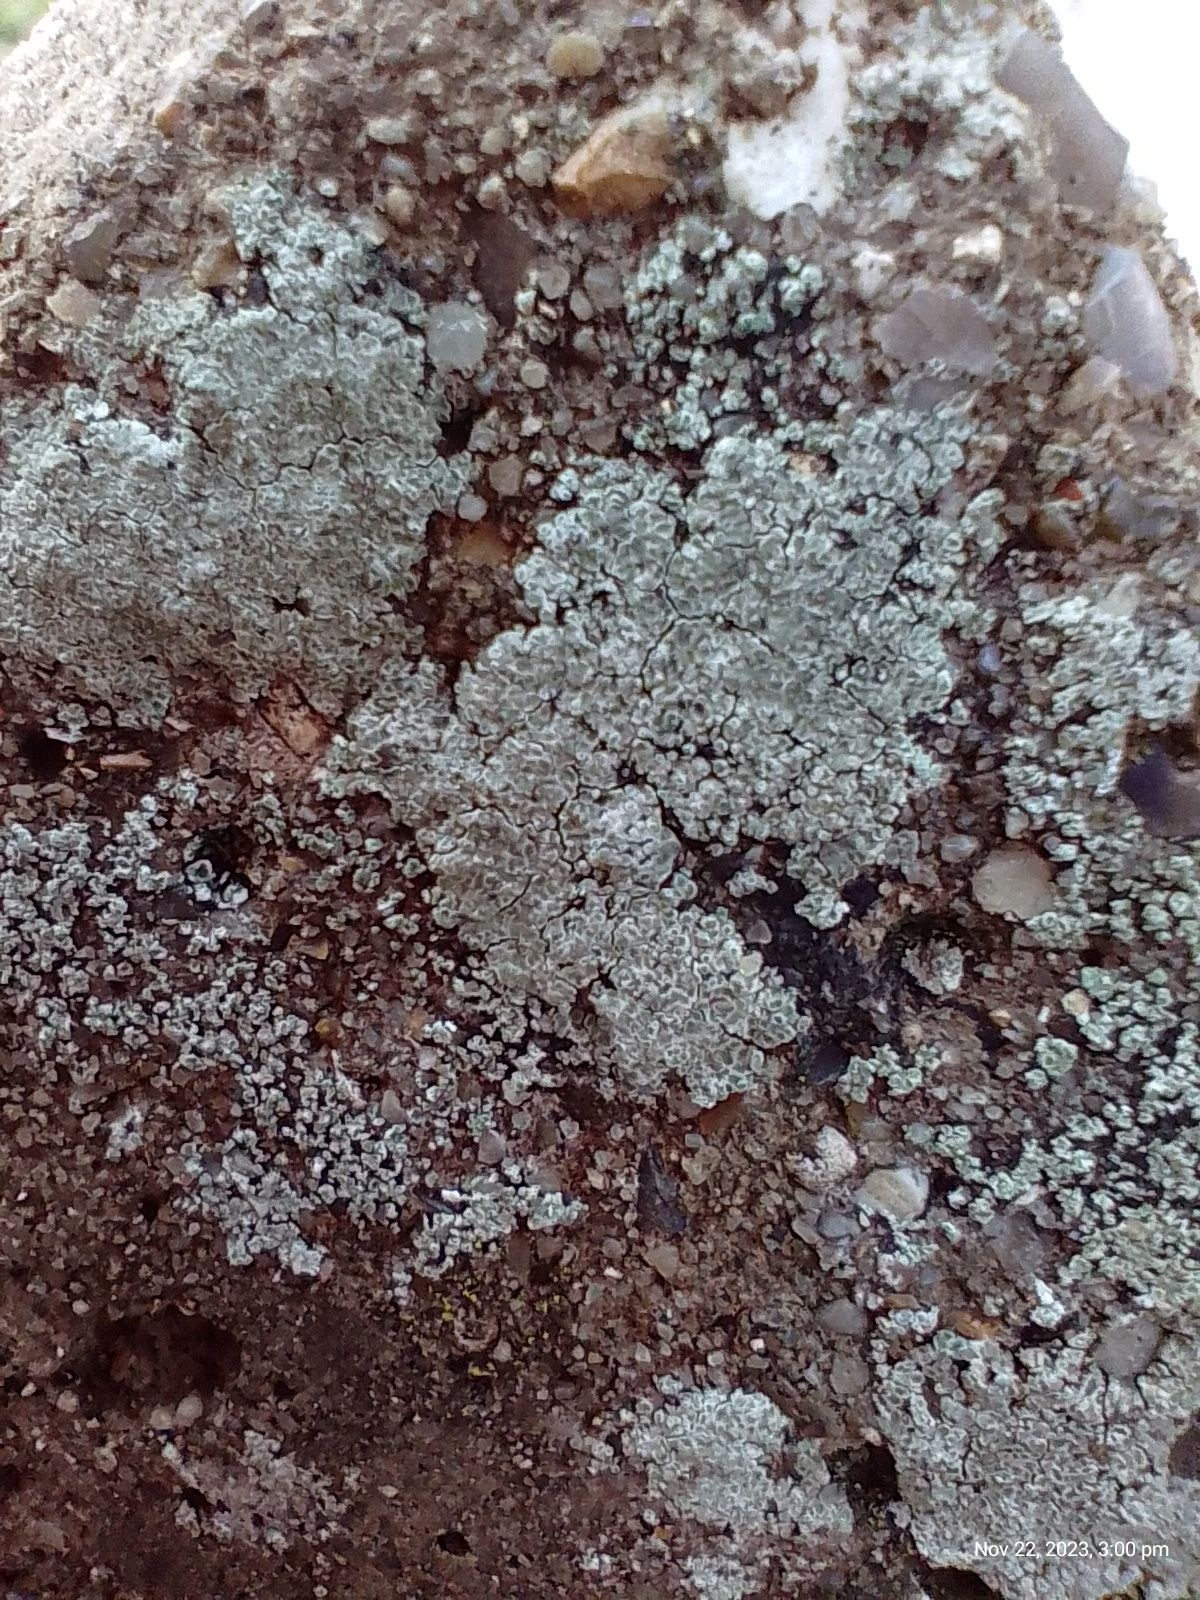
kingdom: Fungi
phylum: Ascomycota
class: Lecanoromycetes
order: Lecanorales
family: Lecanoraceae
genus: Polyozosia
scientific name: Polyozosia albescens
